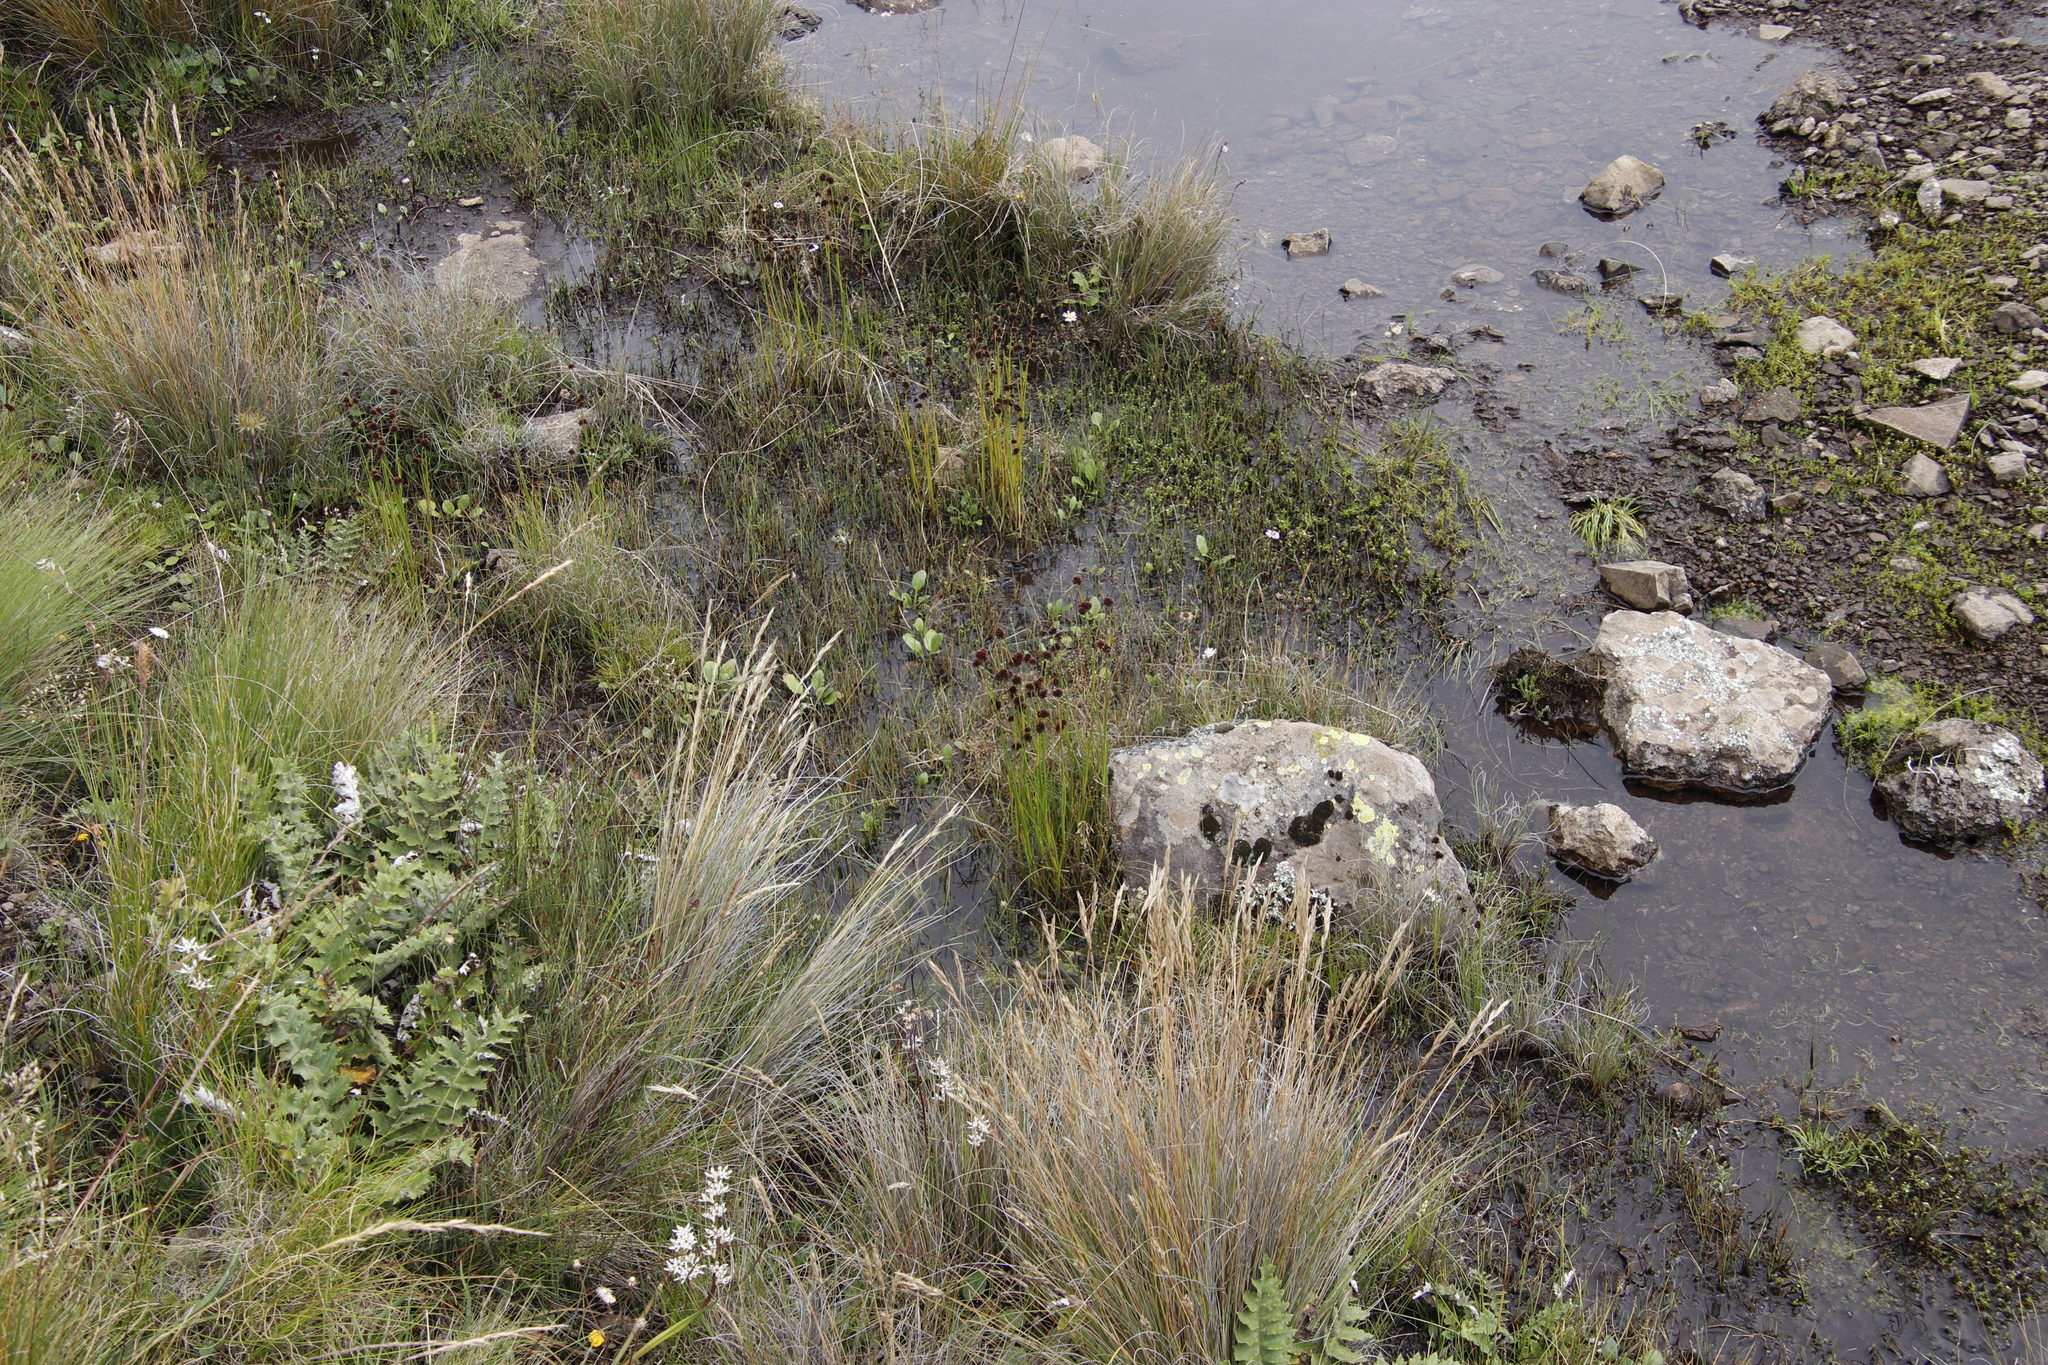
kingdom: Plantae
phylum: Tracheophyta
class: Liliopsida
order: Poales
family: Juncaceae
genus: Juncus
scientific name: Juncus dregeanus
